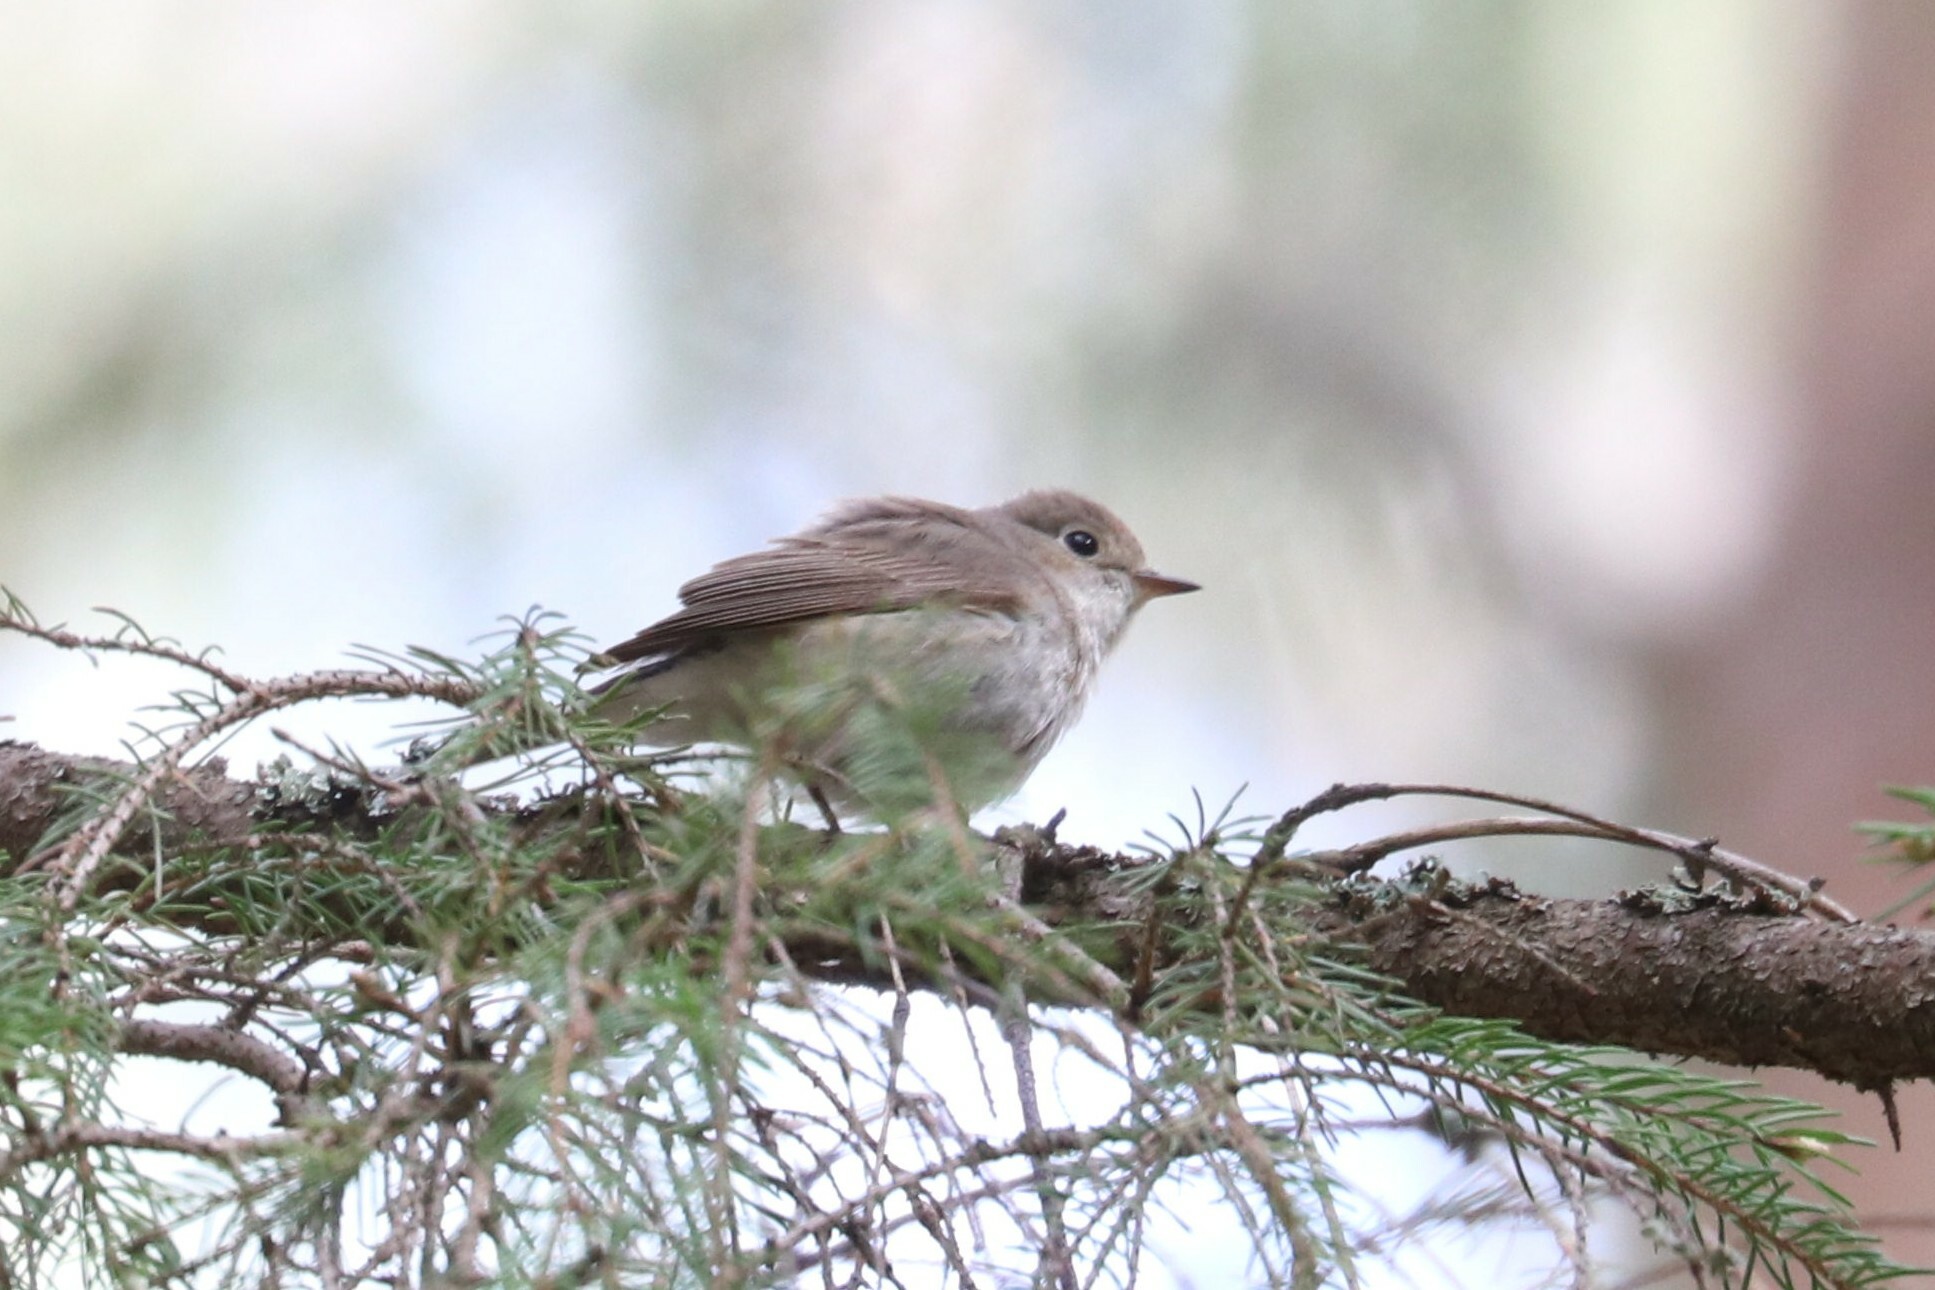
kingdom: Animalia
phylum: Chordata
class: Aves
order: Passeriformes
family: Muscicapidae
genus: Ficedula
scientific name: Ficedula parva
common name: Red-breasted flycatcher
